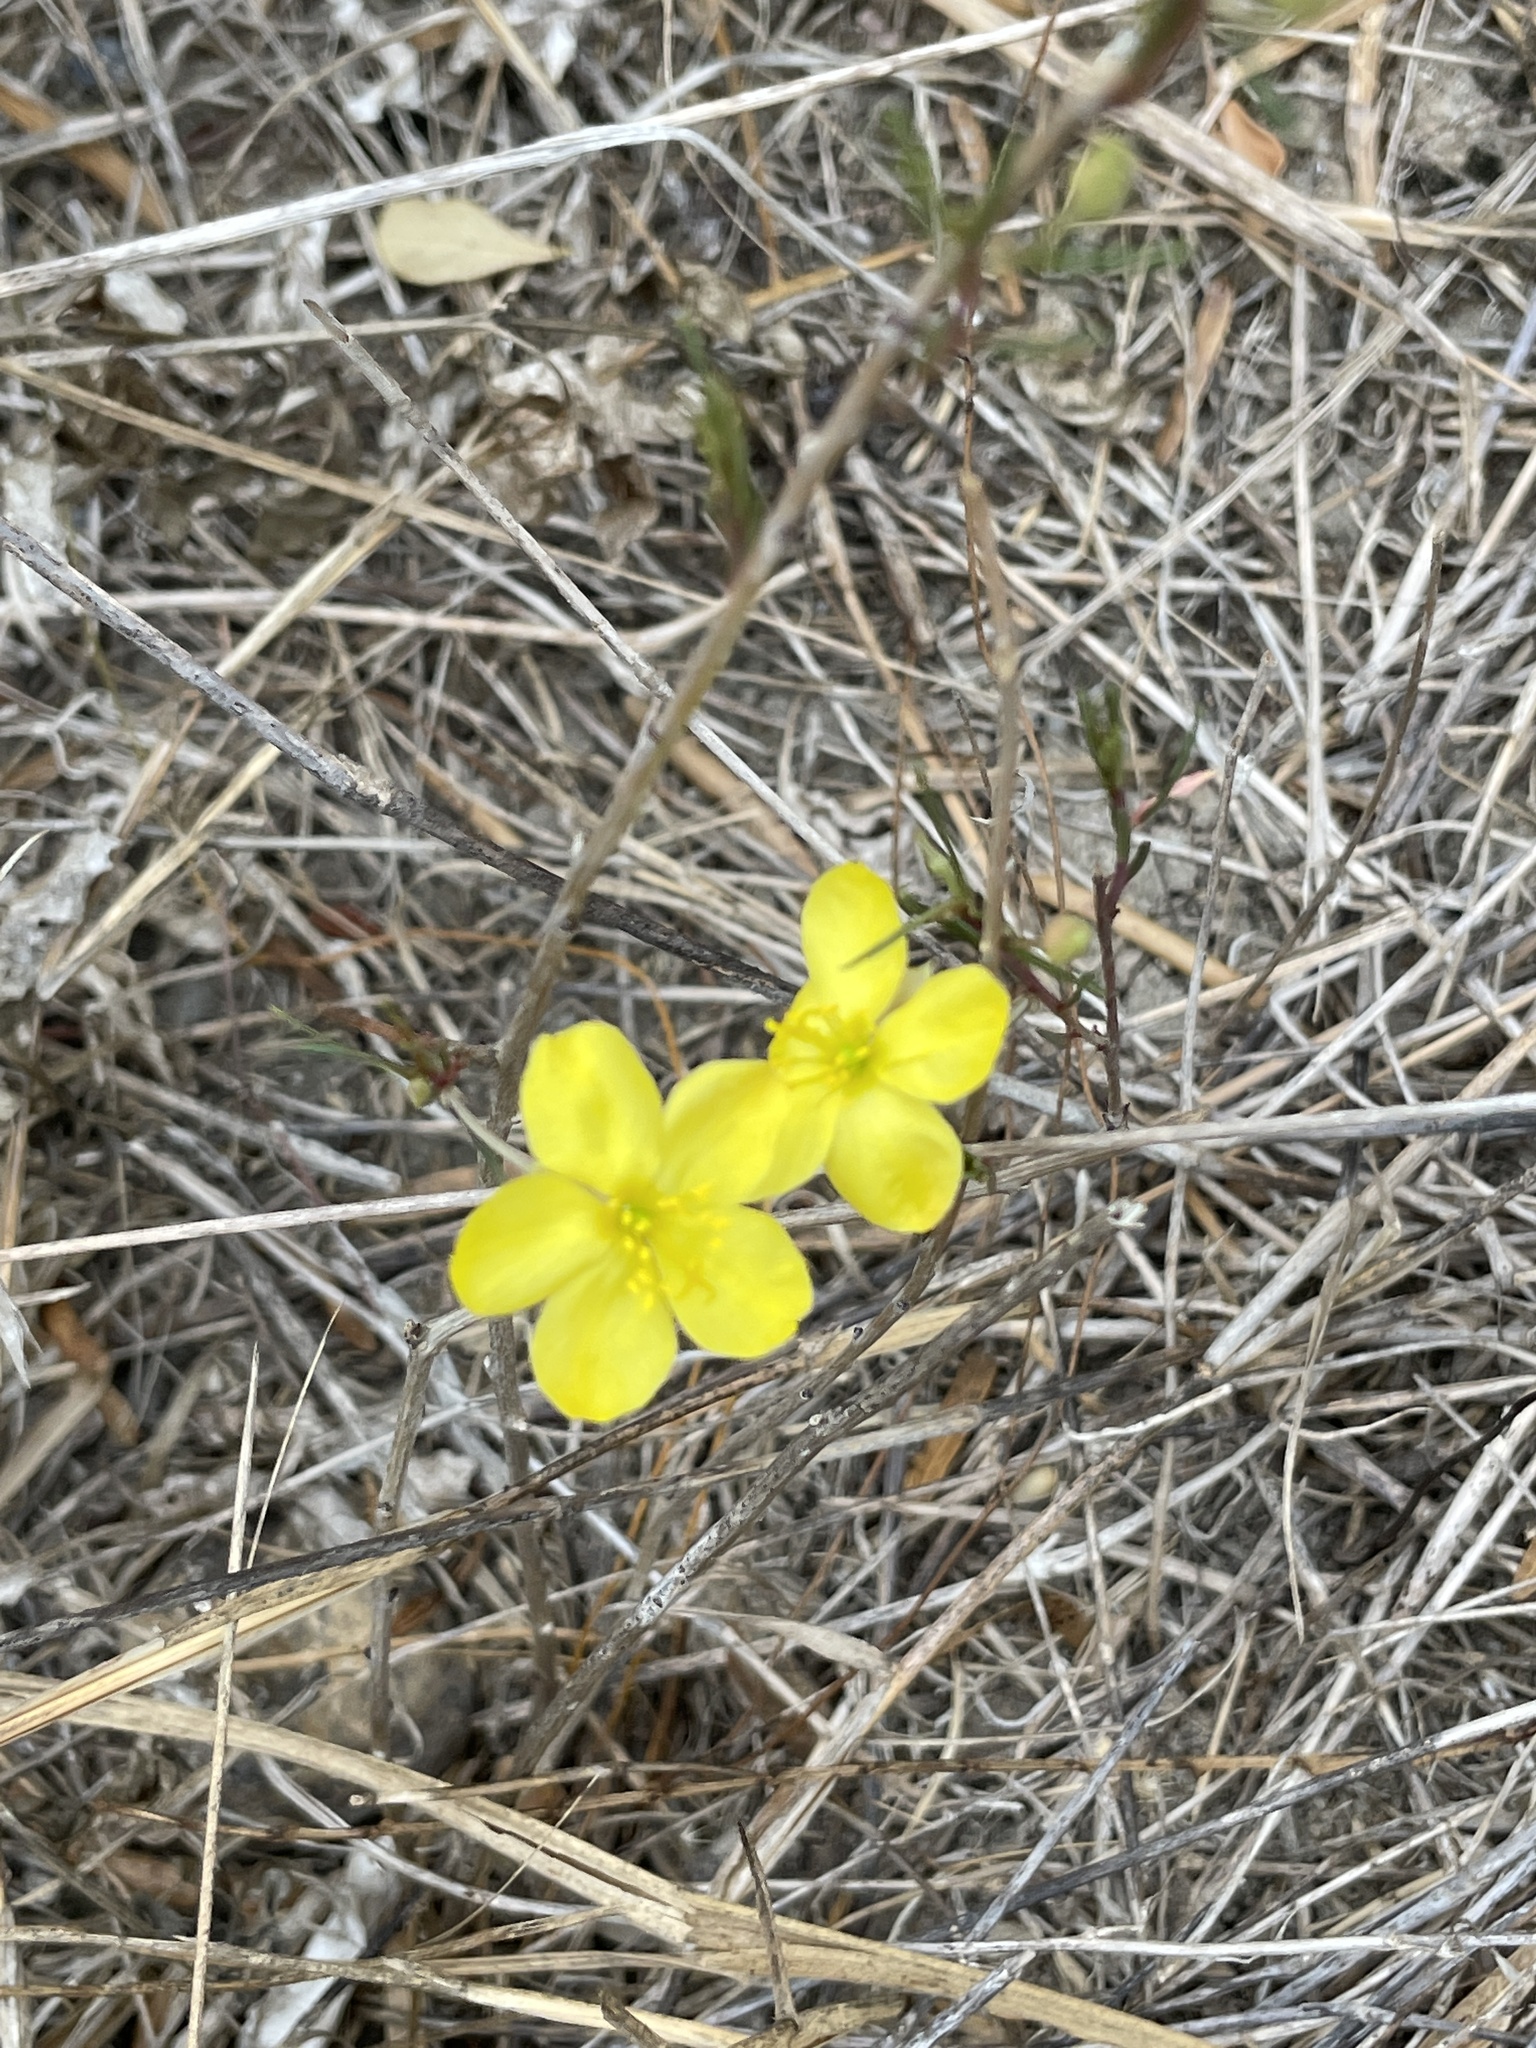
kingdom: Plantae
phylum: Tracheophyta
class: Magnoliopsida
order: Caryophyllales
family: Talinaceae
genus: Talinum
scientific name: Talinum polygaloides
